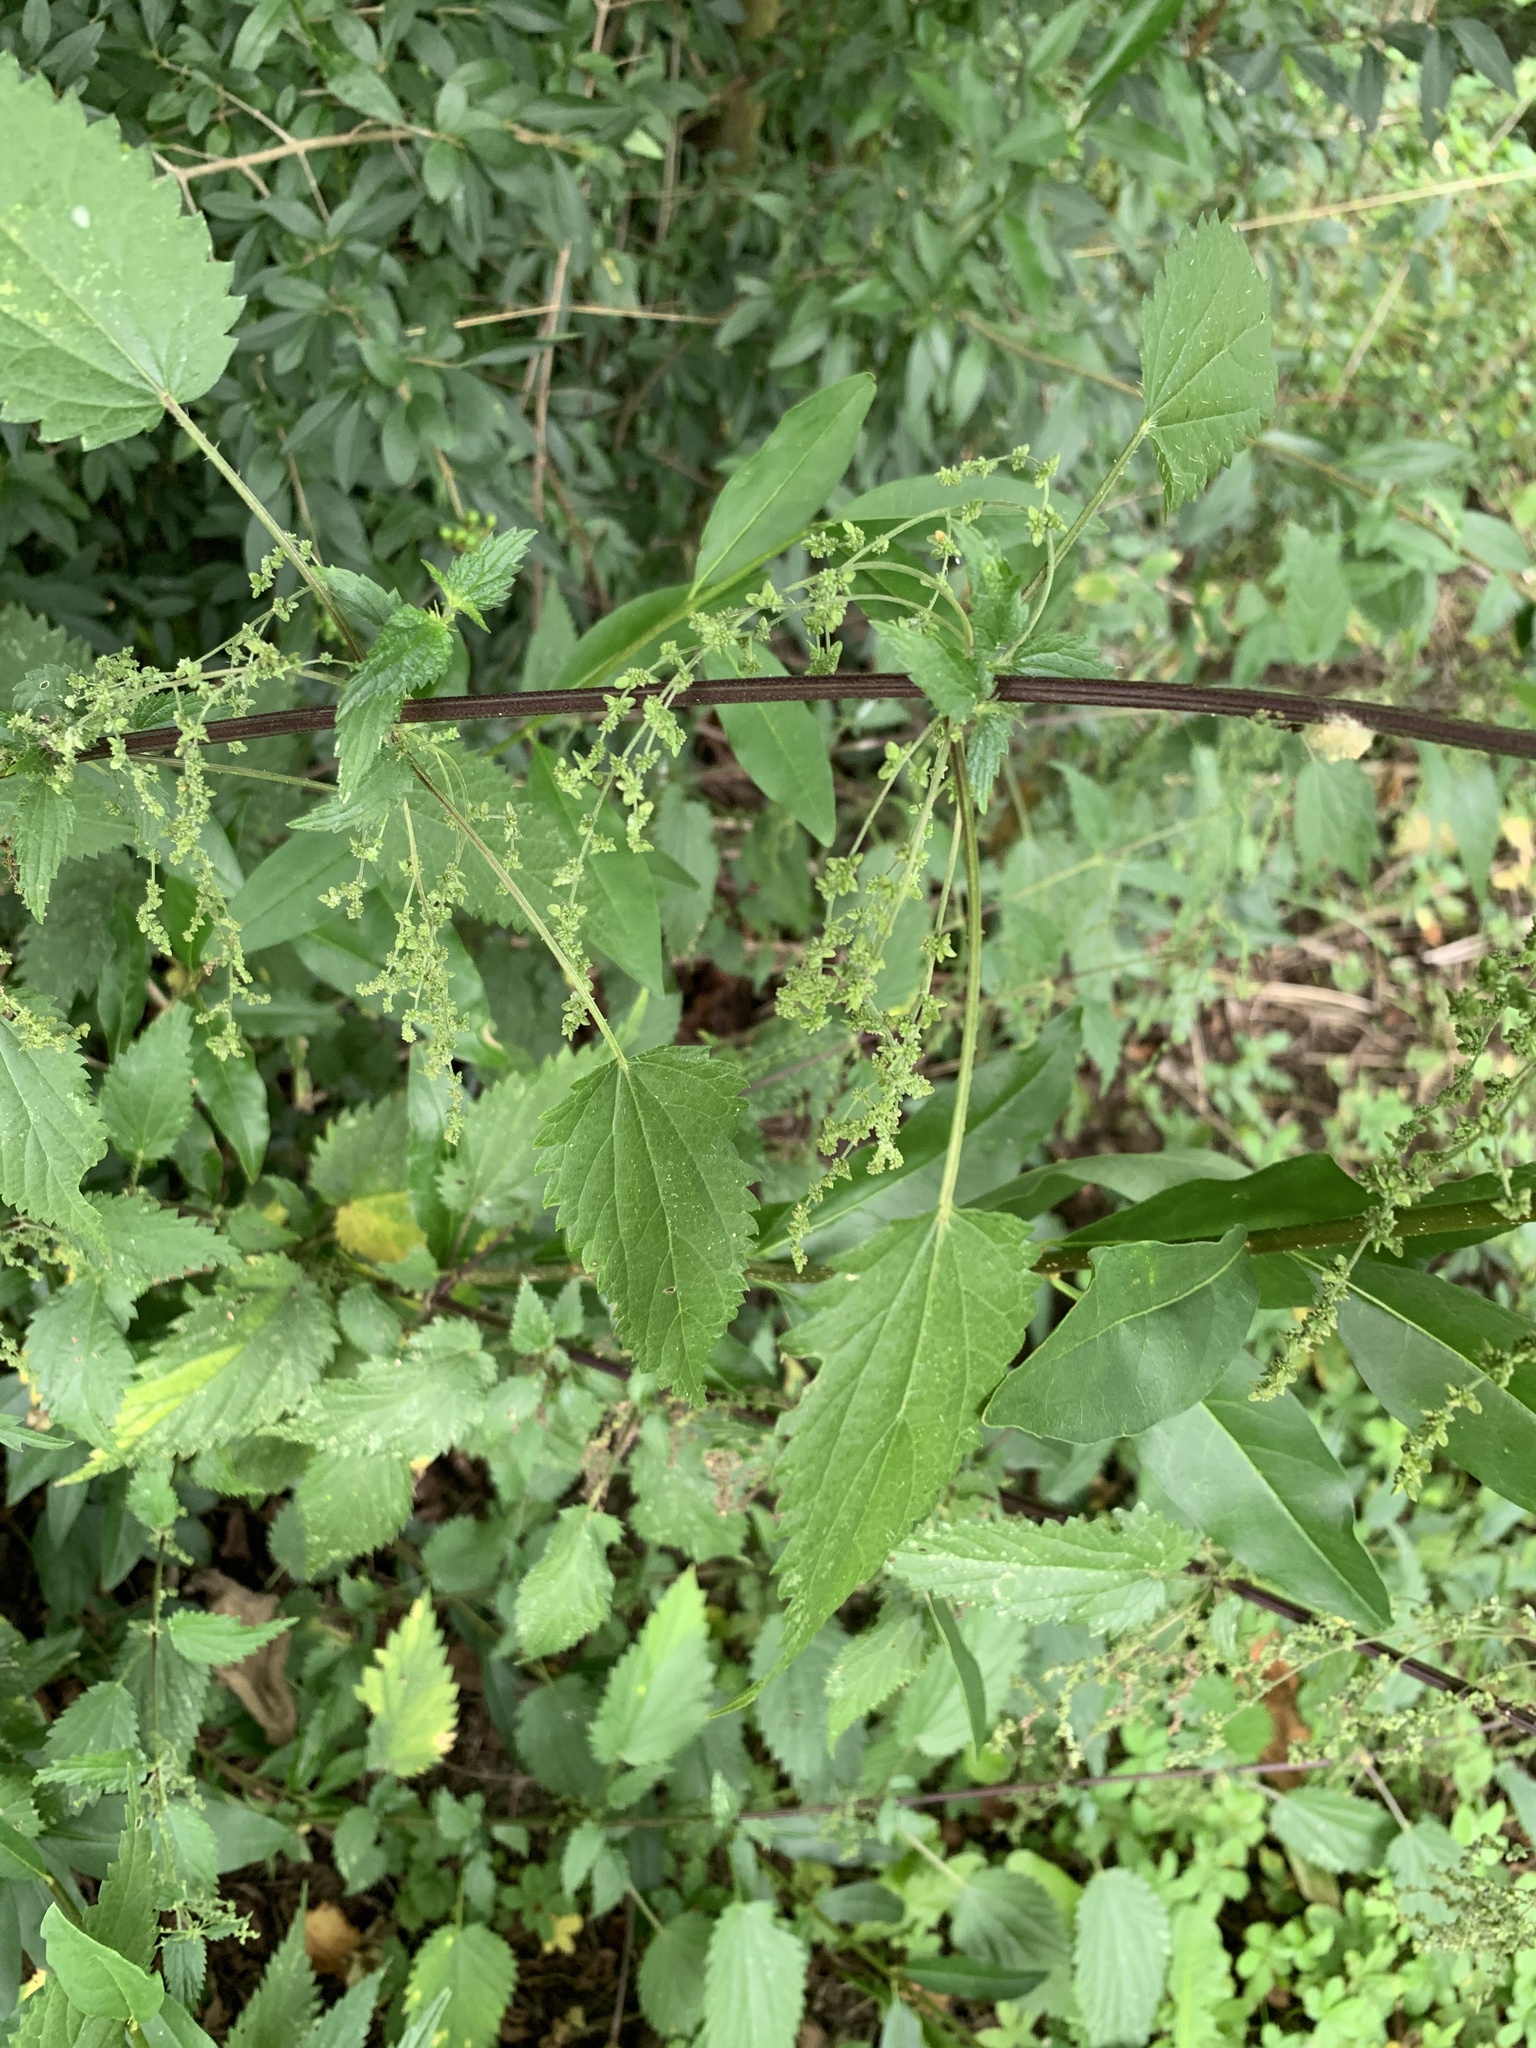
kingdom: Plantae
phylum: Tracheophyta
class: Magnoliopsida
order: Rosales
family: Urticaceae
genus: Urtica
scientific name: Urtica dioica
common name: Common nettle
